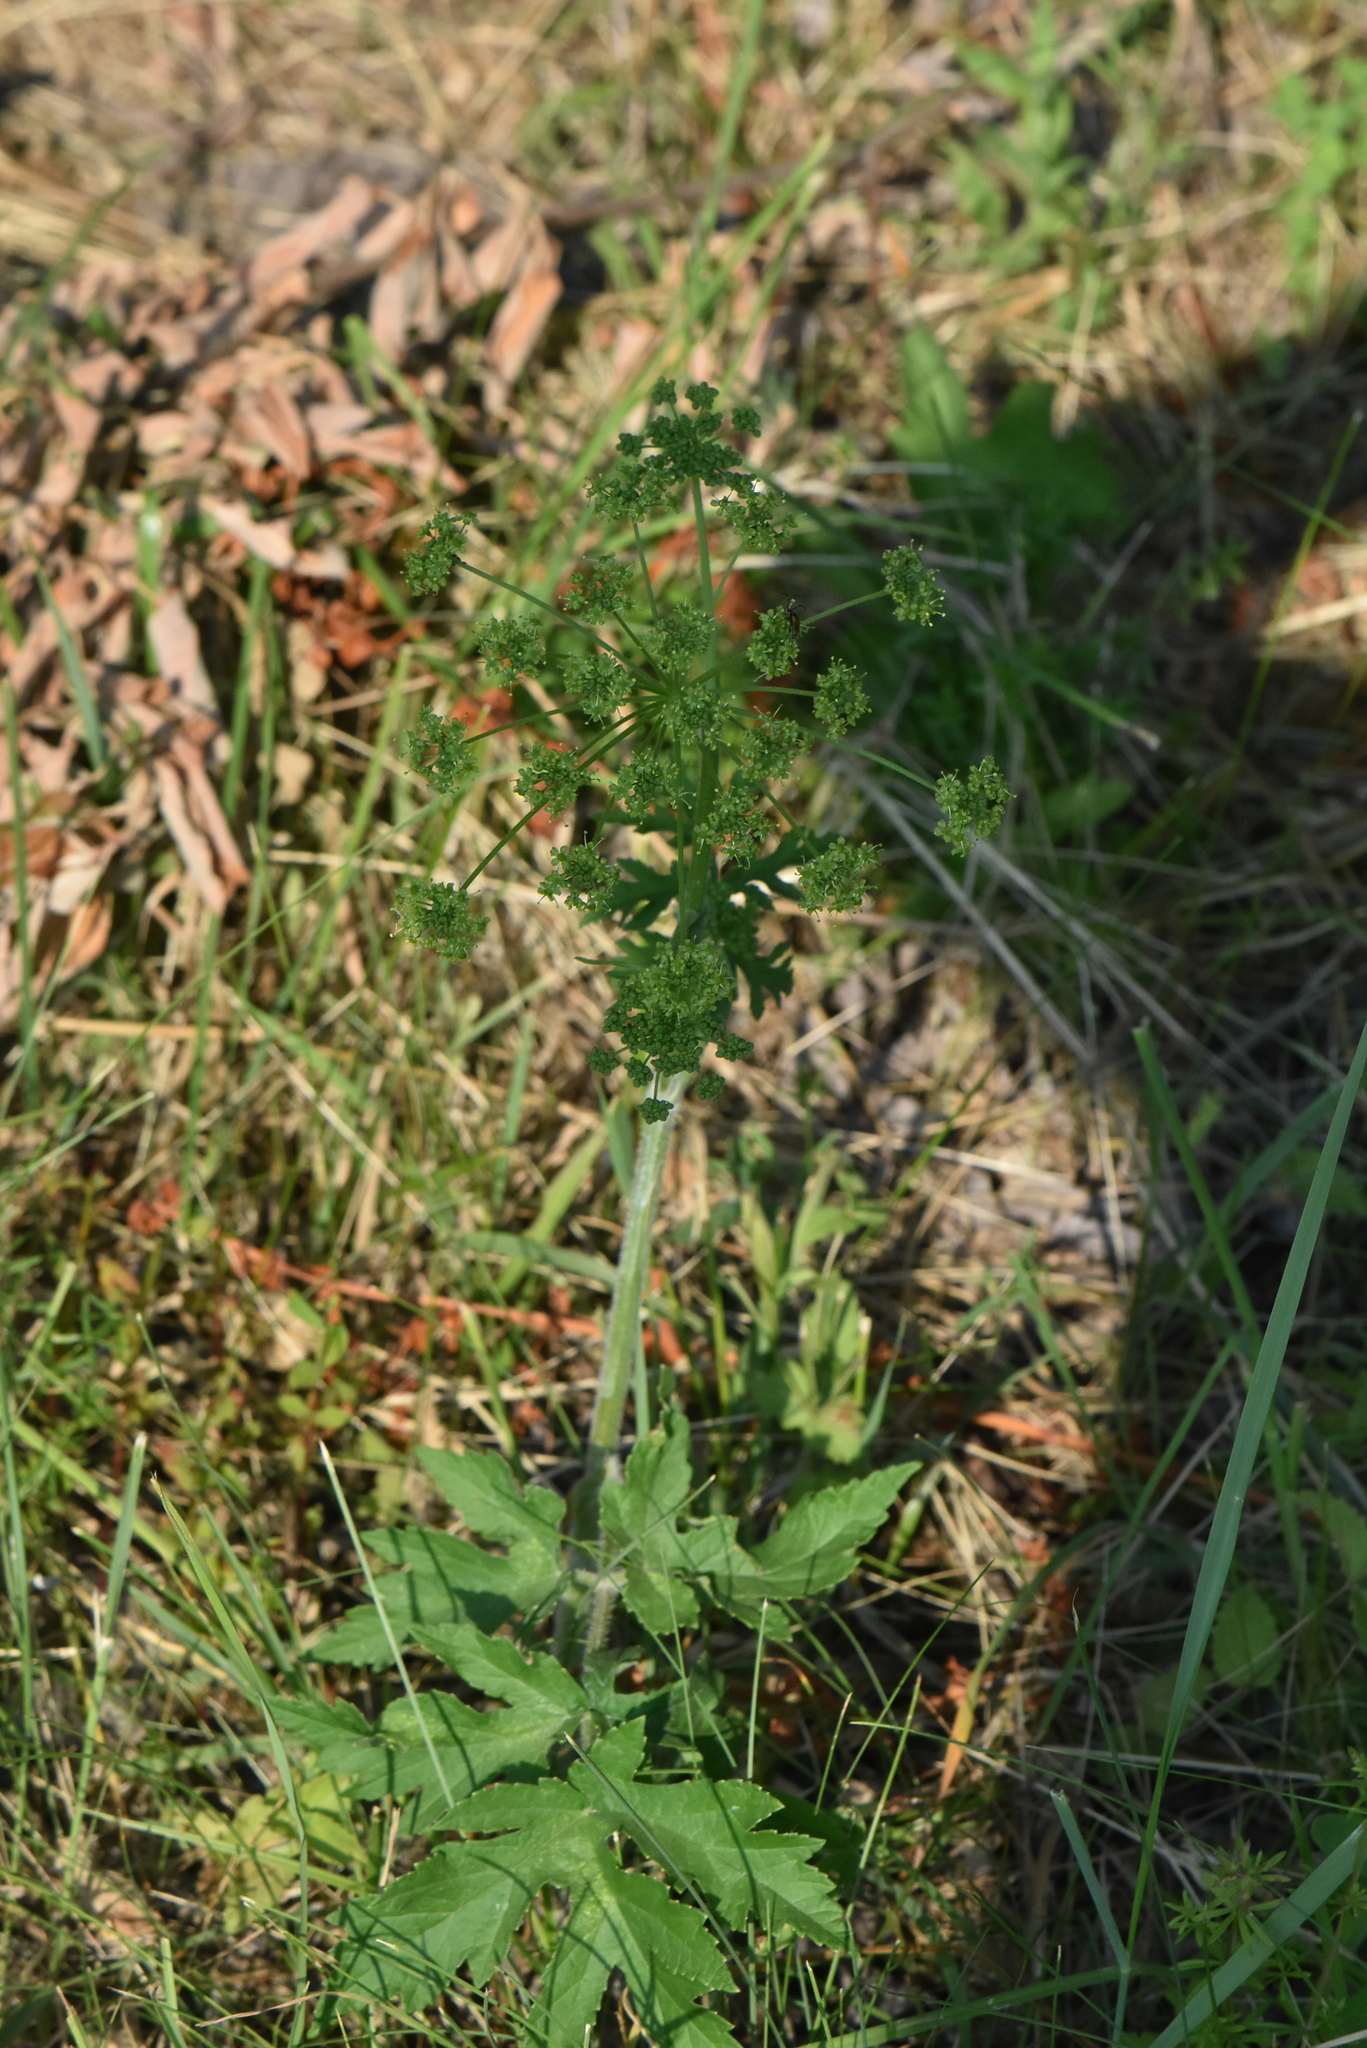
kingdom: Plantae
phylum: Tracheophyta
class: Magnoliopsida
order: Apiales
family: Apiaceae
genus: Heracleum
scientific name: Heracleum sphondylium
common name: Hogweed
